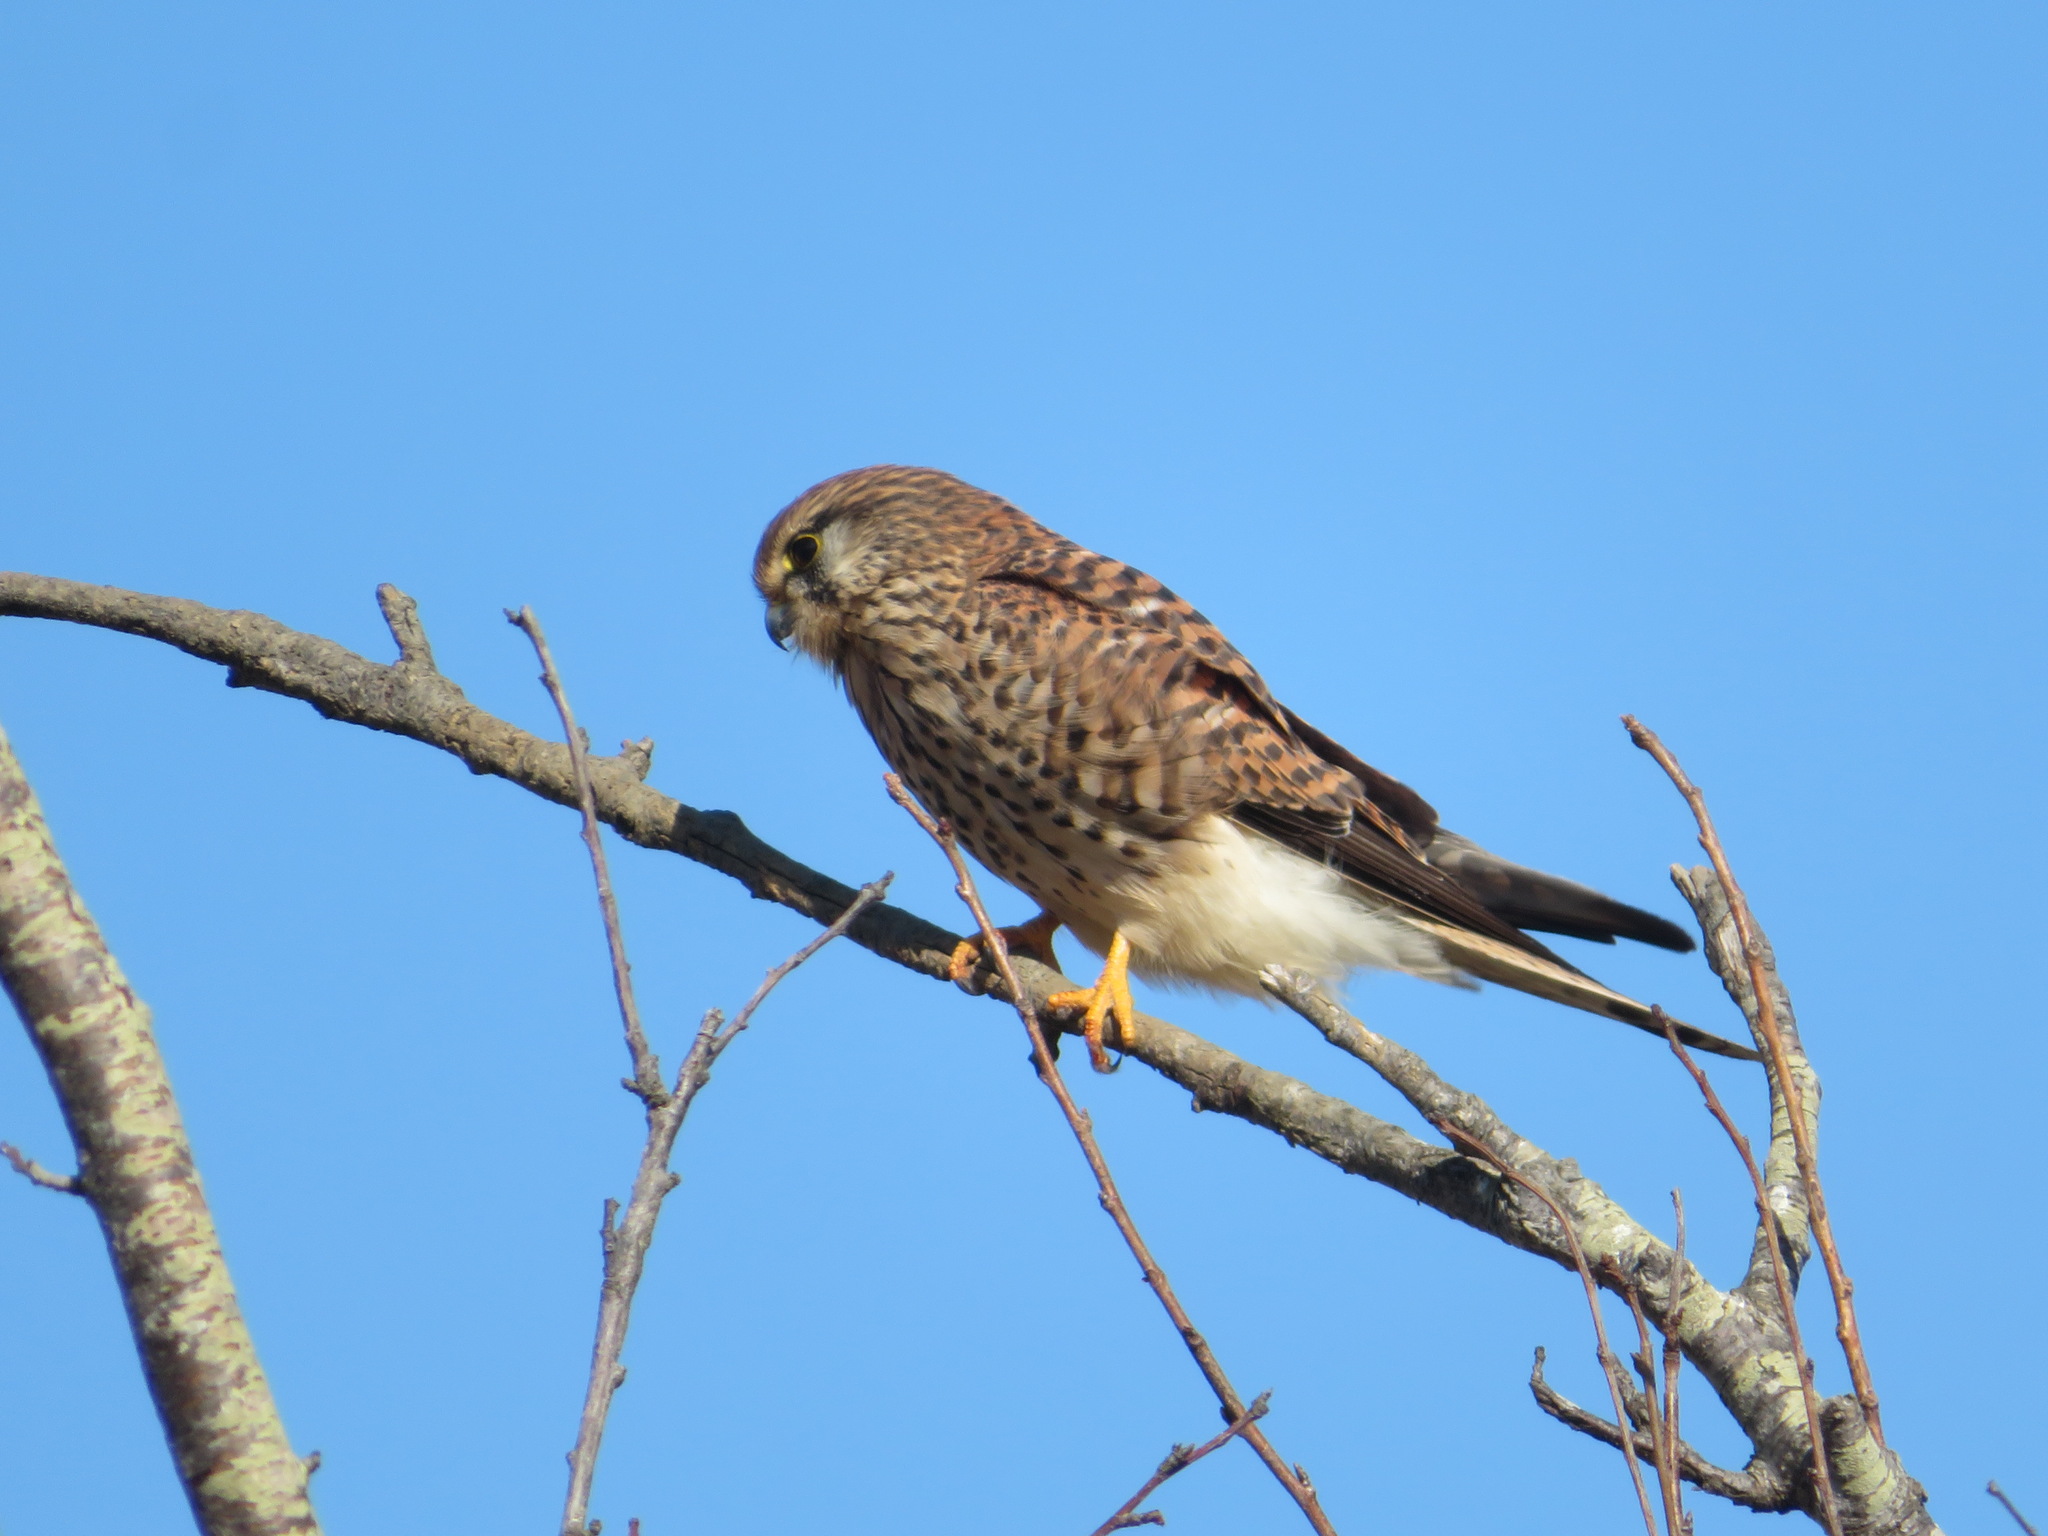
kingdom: Animalia
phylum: Chordata
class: Aves
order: Falconiformes
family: Falconidae
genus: Falco
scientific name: Falco tinnunculus
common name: Common kestrel
